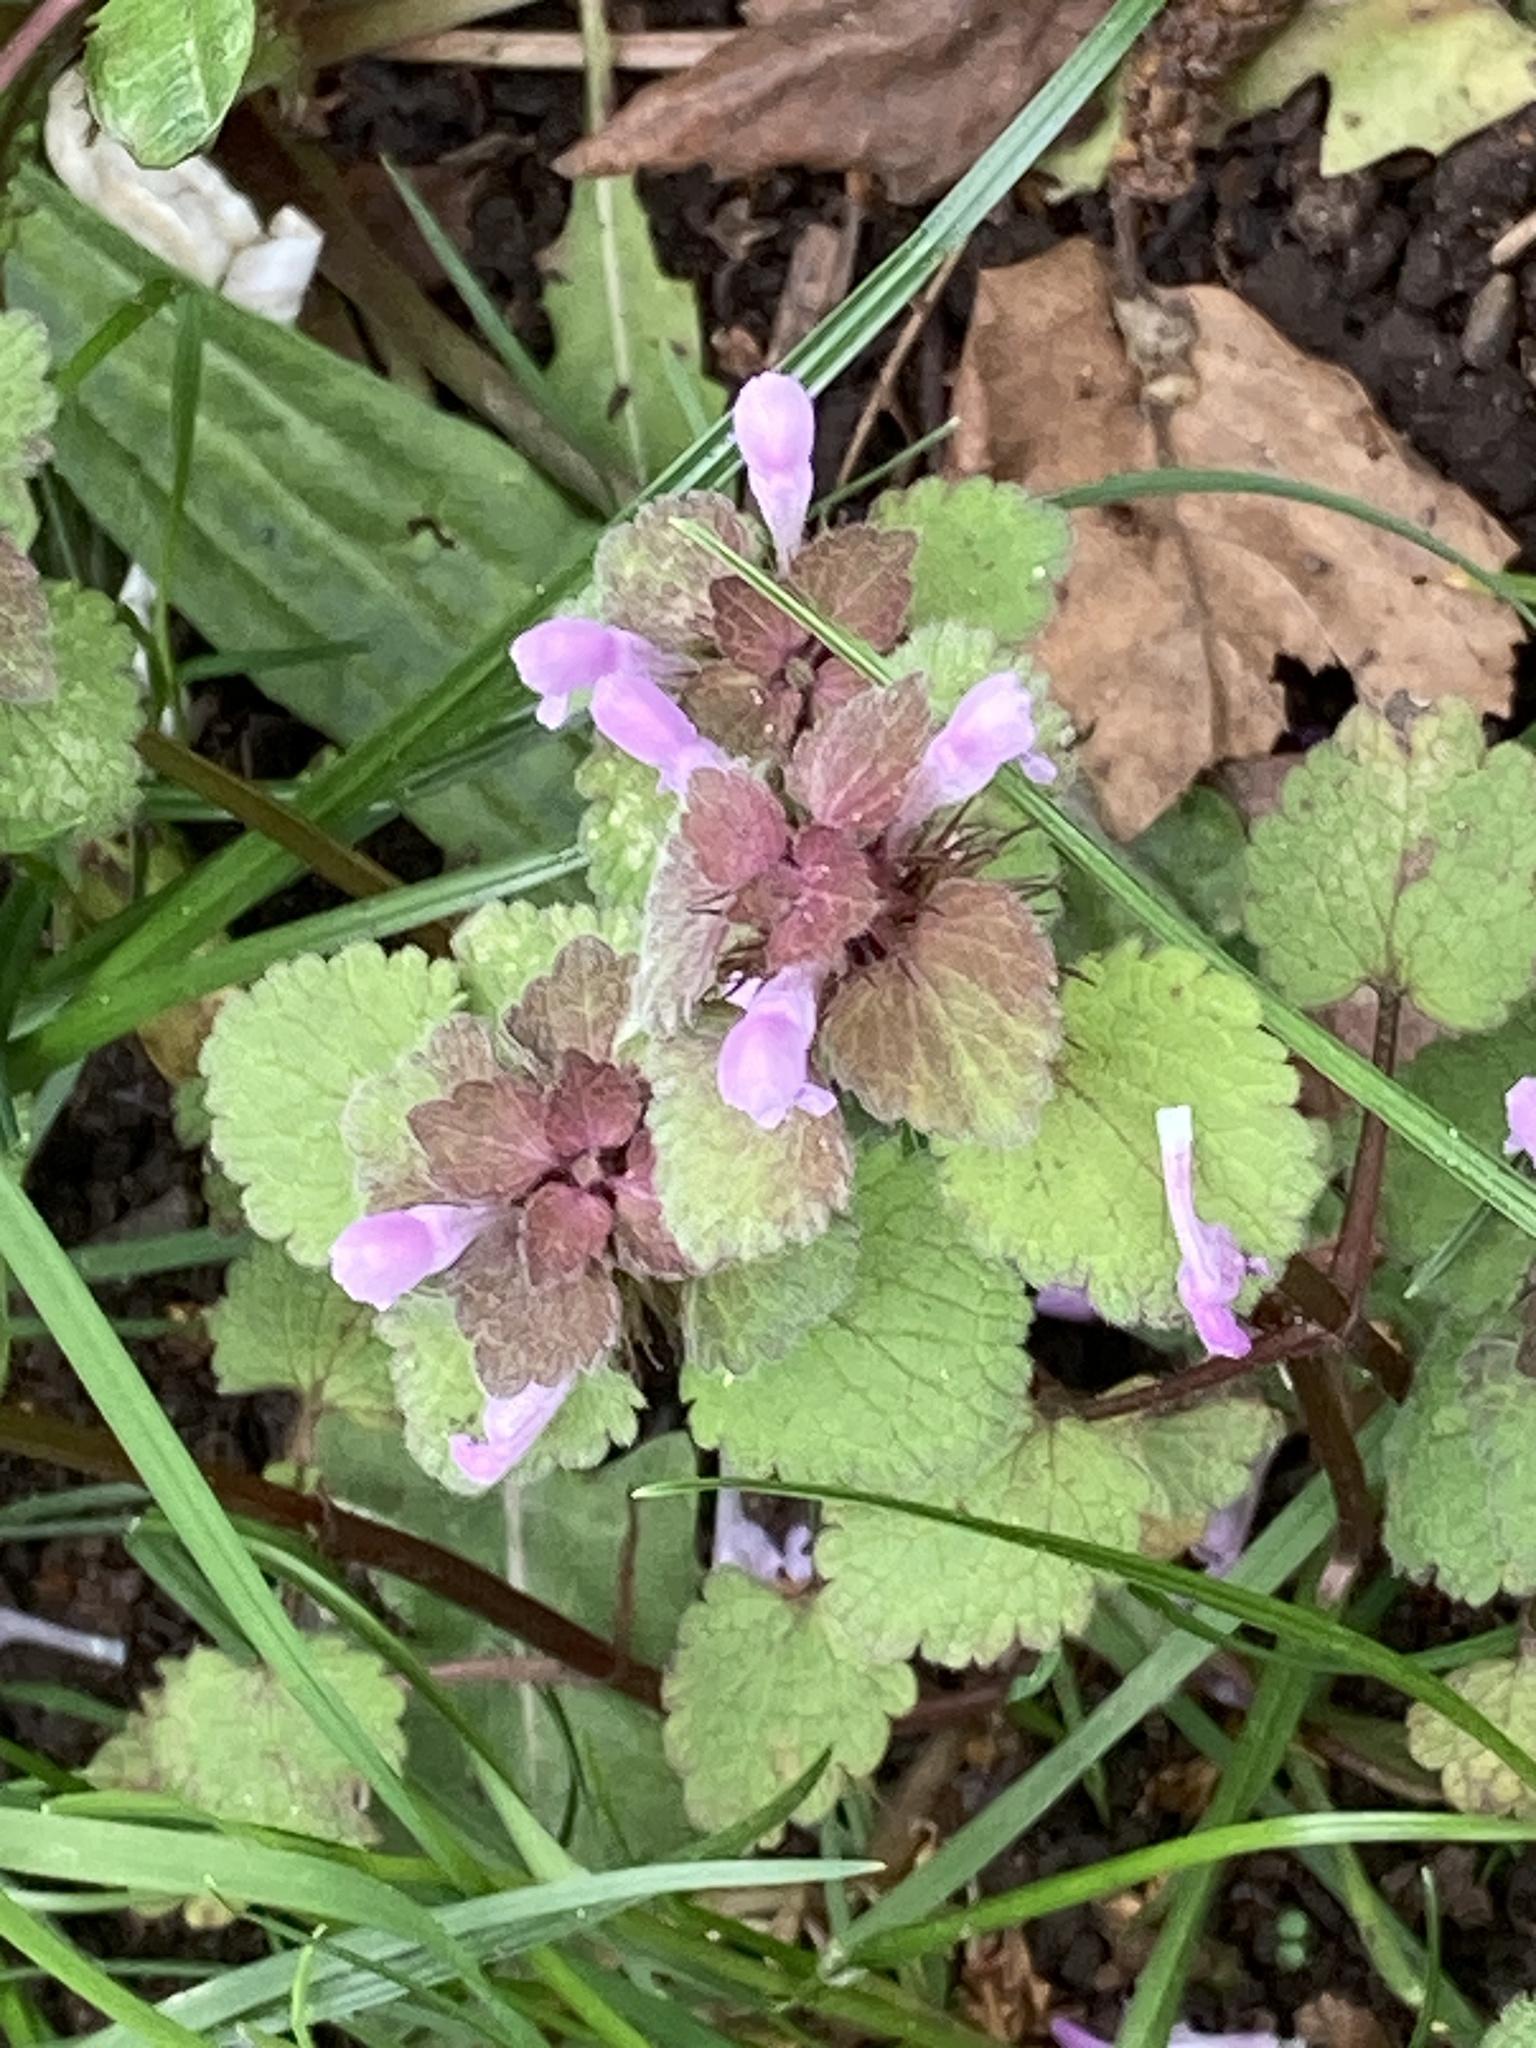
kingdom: Plantae
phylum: Tracheophyta
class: Magnoliopsida
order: Lamiales
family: Lamiaceae
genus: Lamium
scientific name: Lamium purpureum
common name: Red dead-nettle
